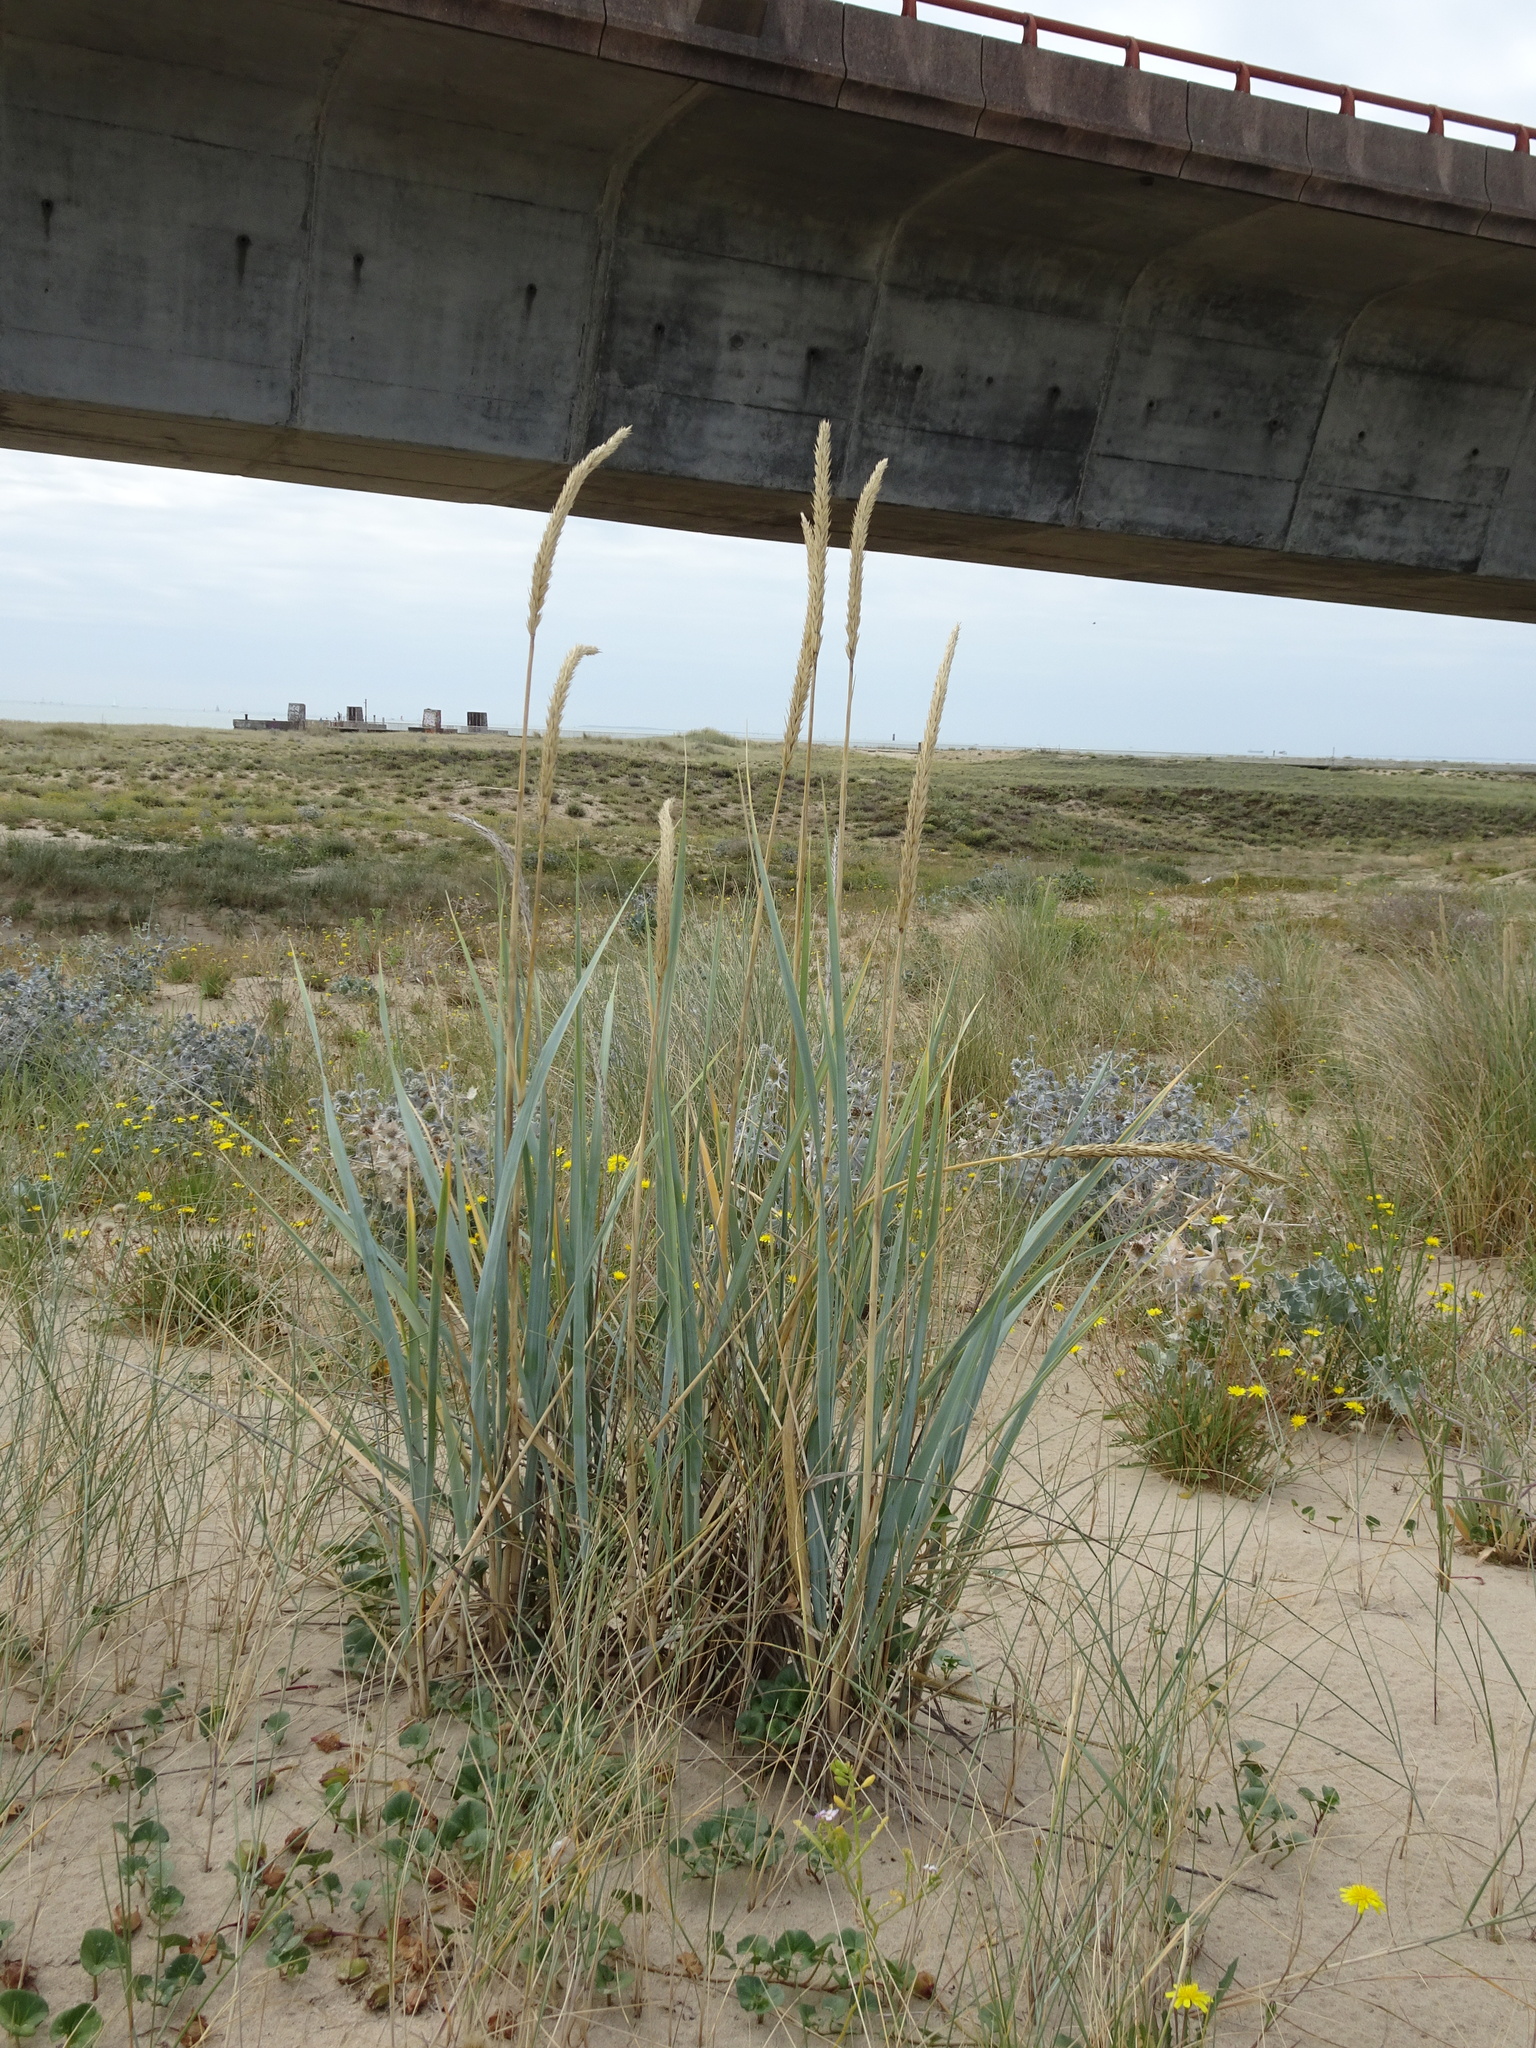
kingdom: Plantae
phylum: Tracheophyta
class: Liliopsida
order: Poales
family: Poaceae
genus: Leymus
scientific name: Leymus arenarius
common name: Lyme-grass
